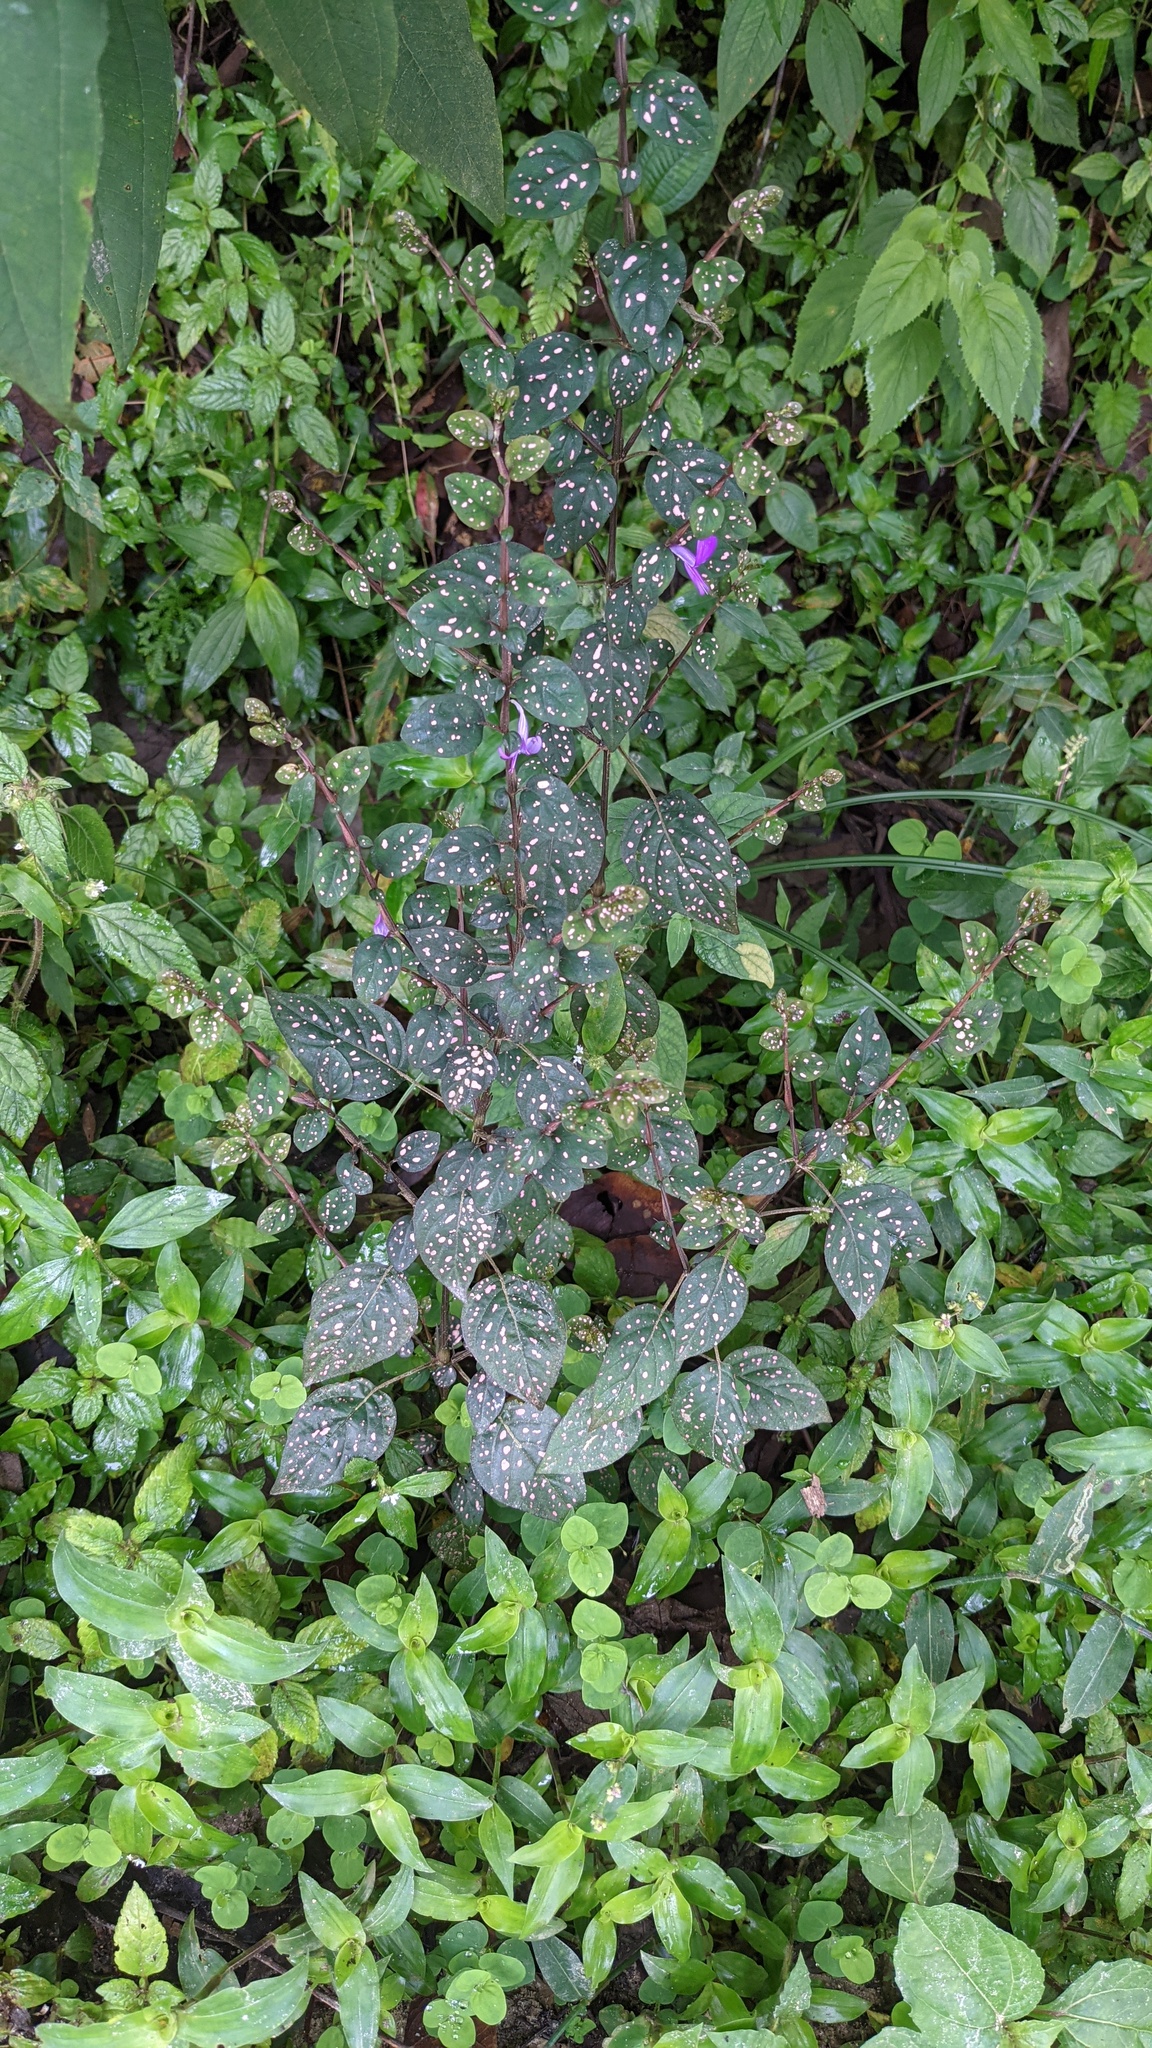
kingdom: Plantae
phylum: Tracheophyta
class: Magnoliopsida
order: Lamiales
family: Acanthaceae
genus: Hypoestes
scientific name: Hypoestes phyllostachya
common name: Polkadot-plant
